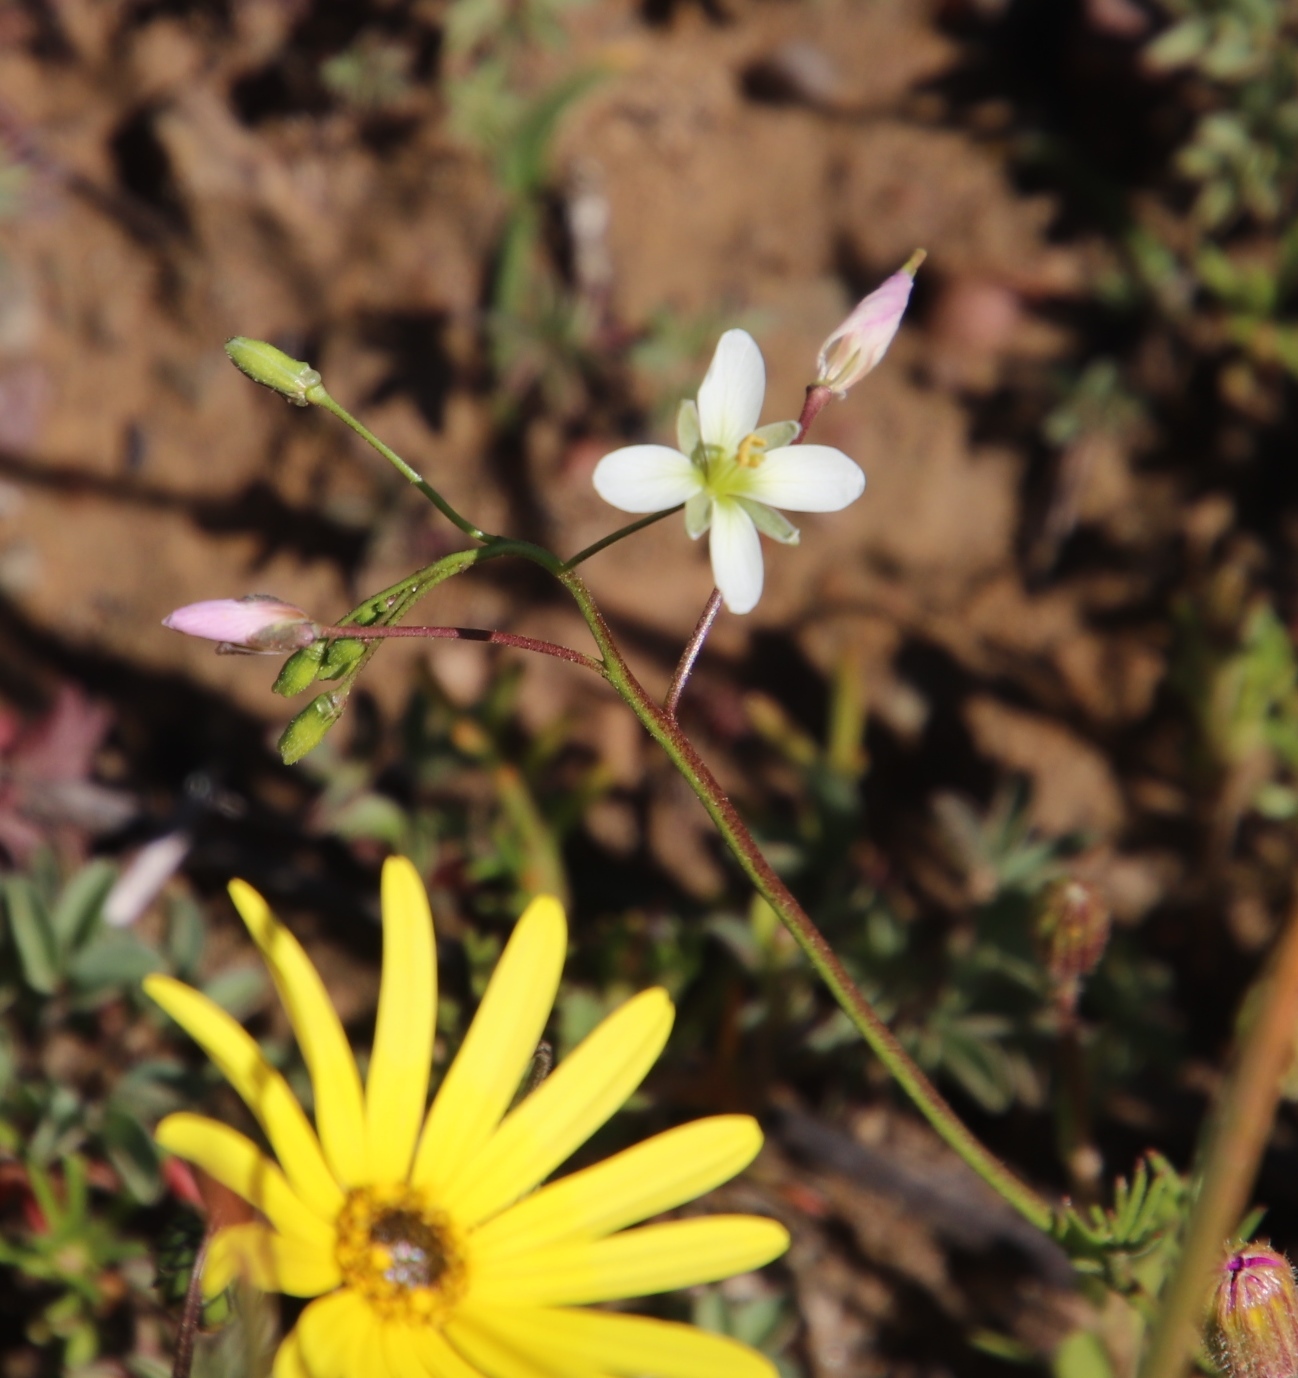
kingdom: Plantae
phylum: Tracheophyta
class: Magnoliopsida
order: Brassicales
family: Brassicaceae
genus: Heliophila
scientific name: Heliophila crithmifolia
